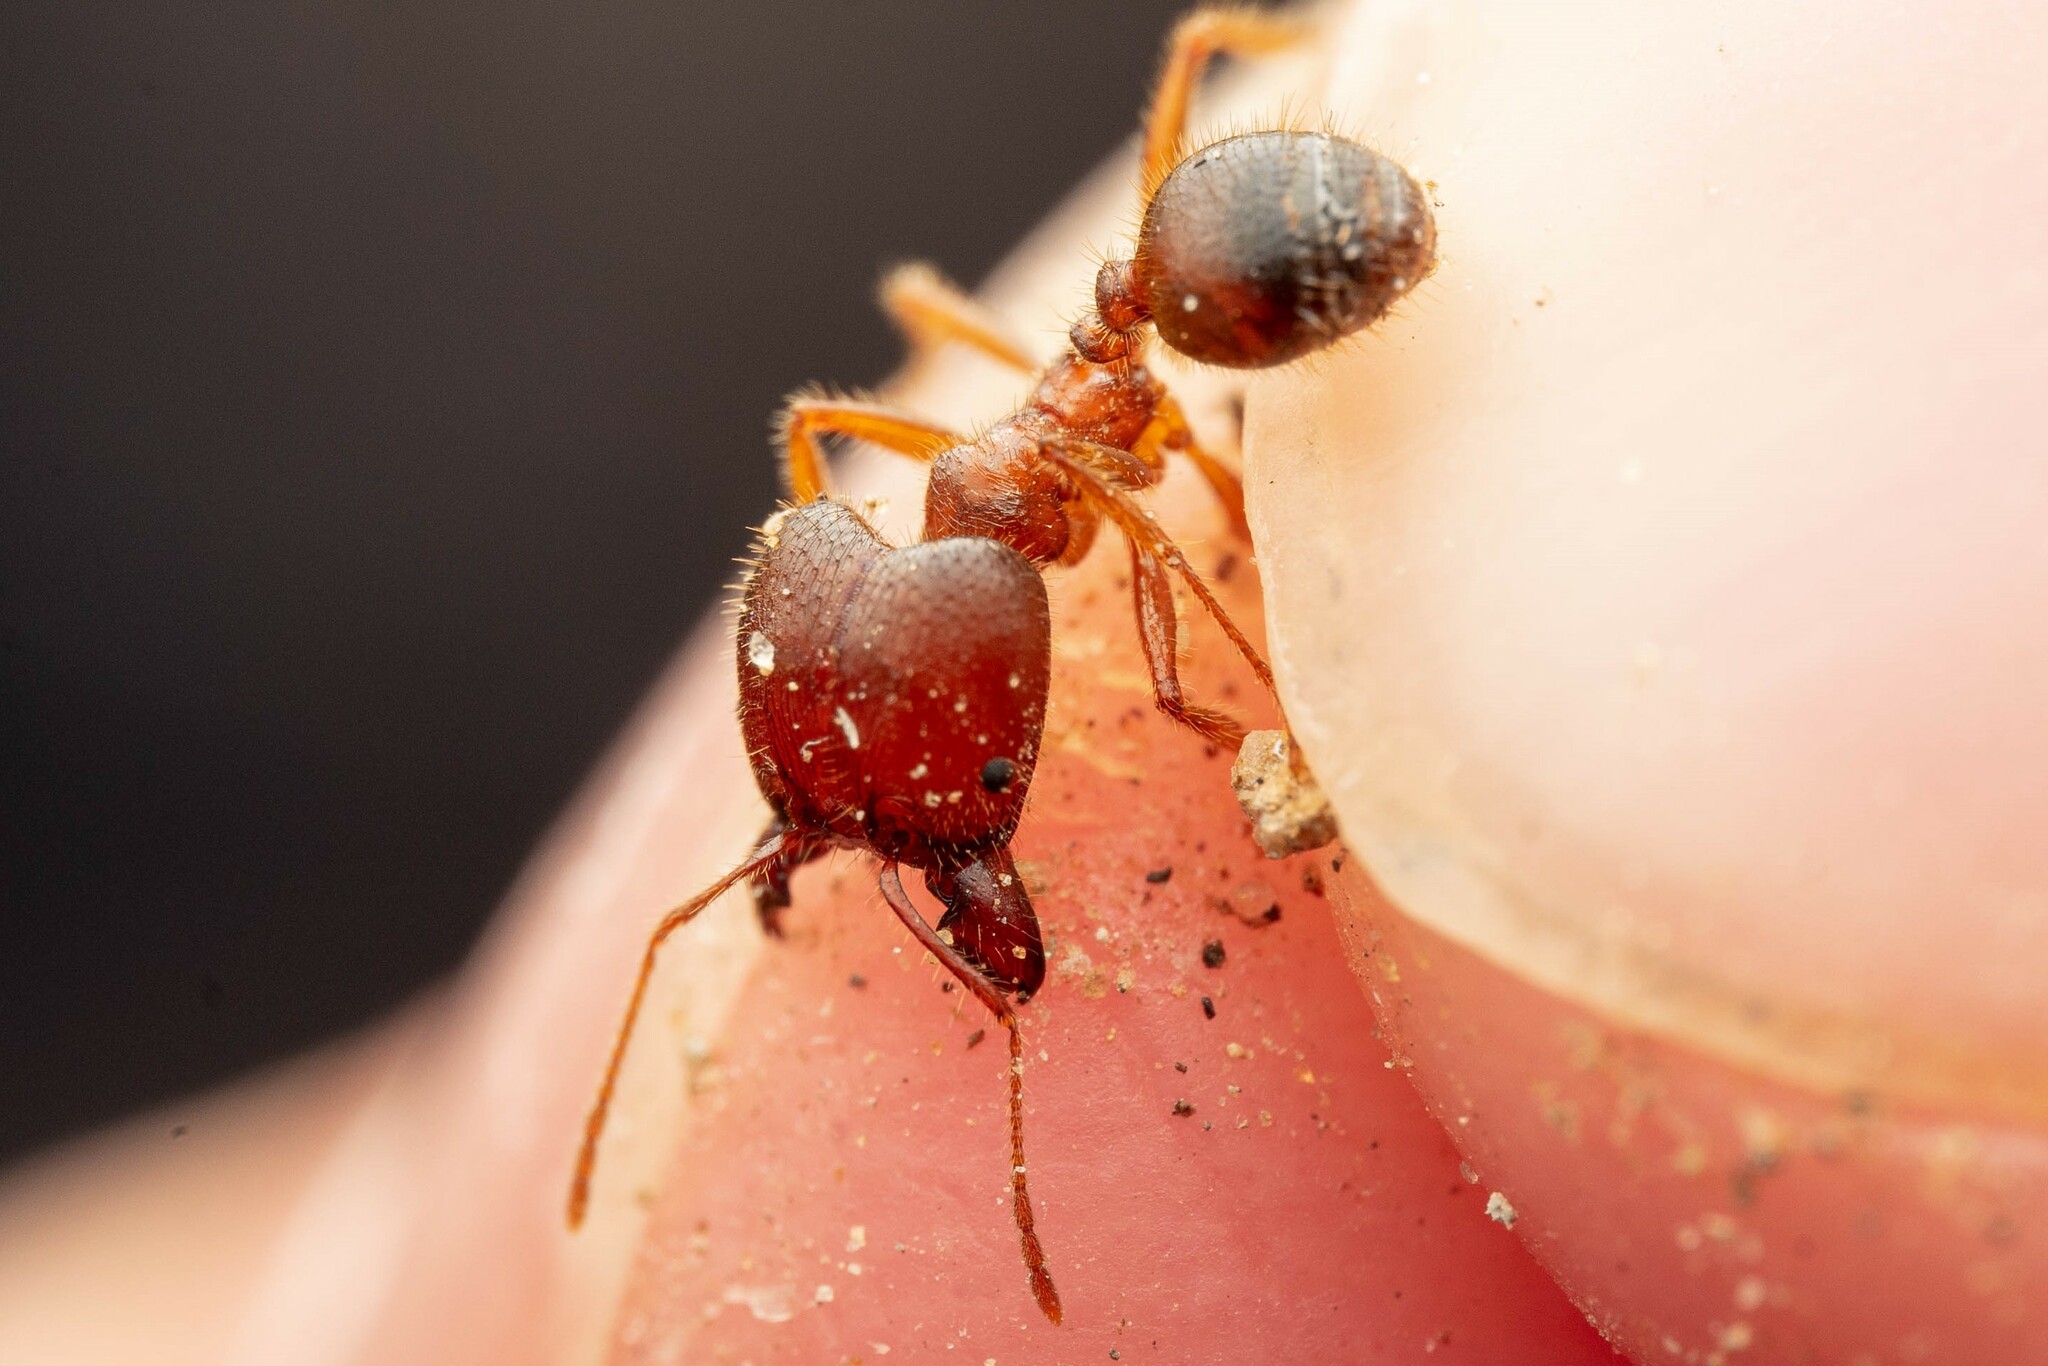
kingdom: Animalia
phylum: Arthropoda
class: Insecta
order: Hymenoptera
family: Formicidae
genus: Pheidole
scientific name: Pheidole obtusospinosa
